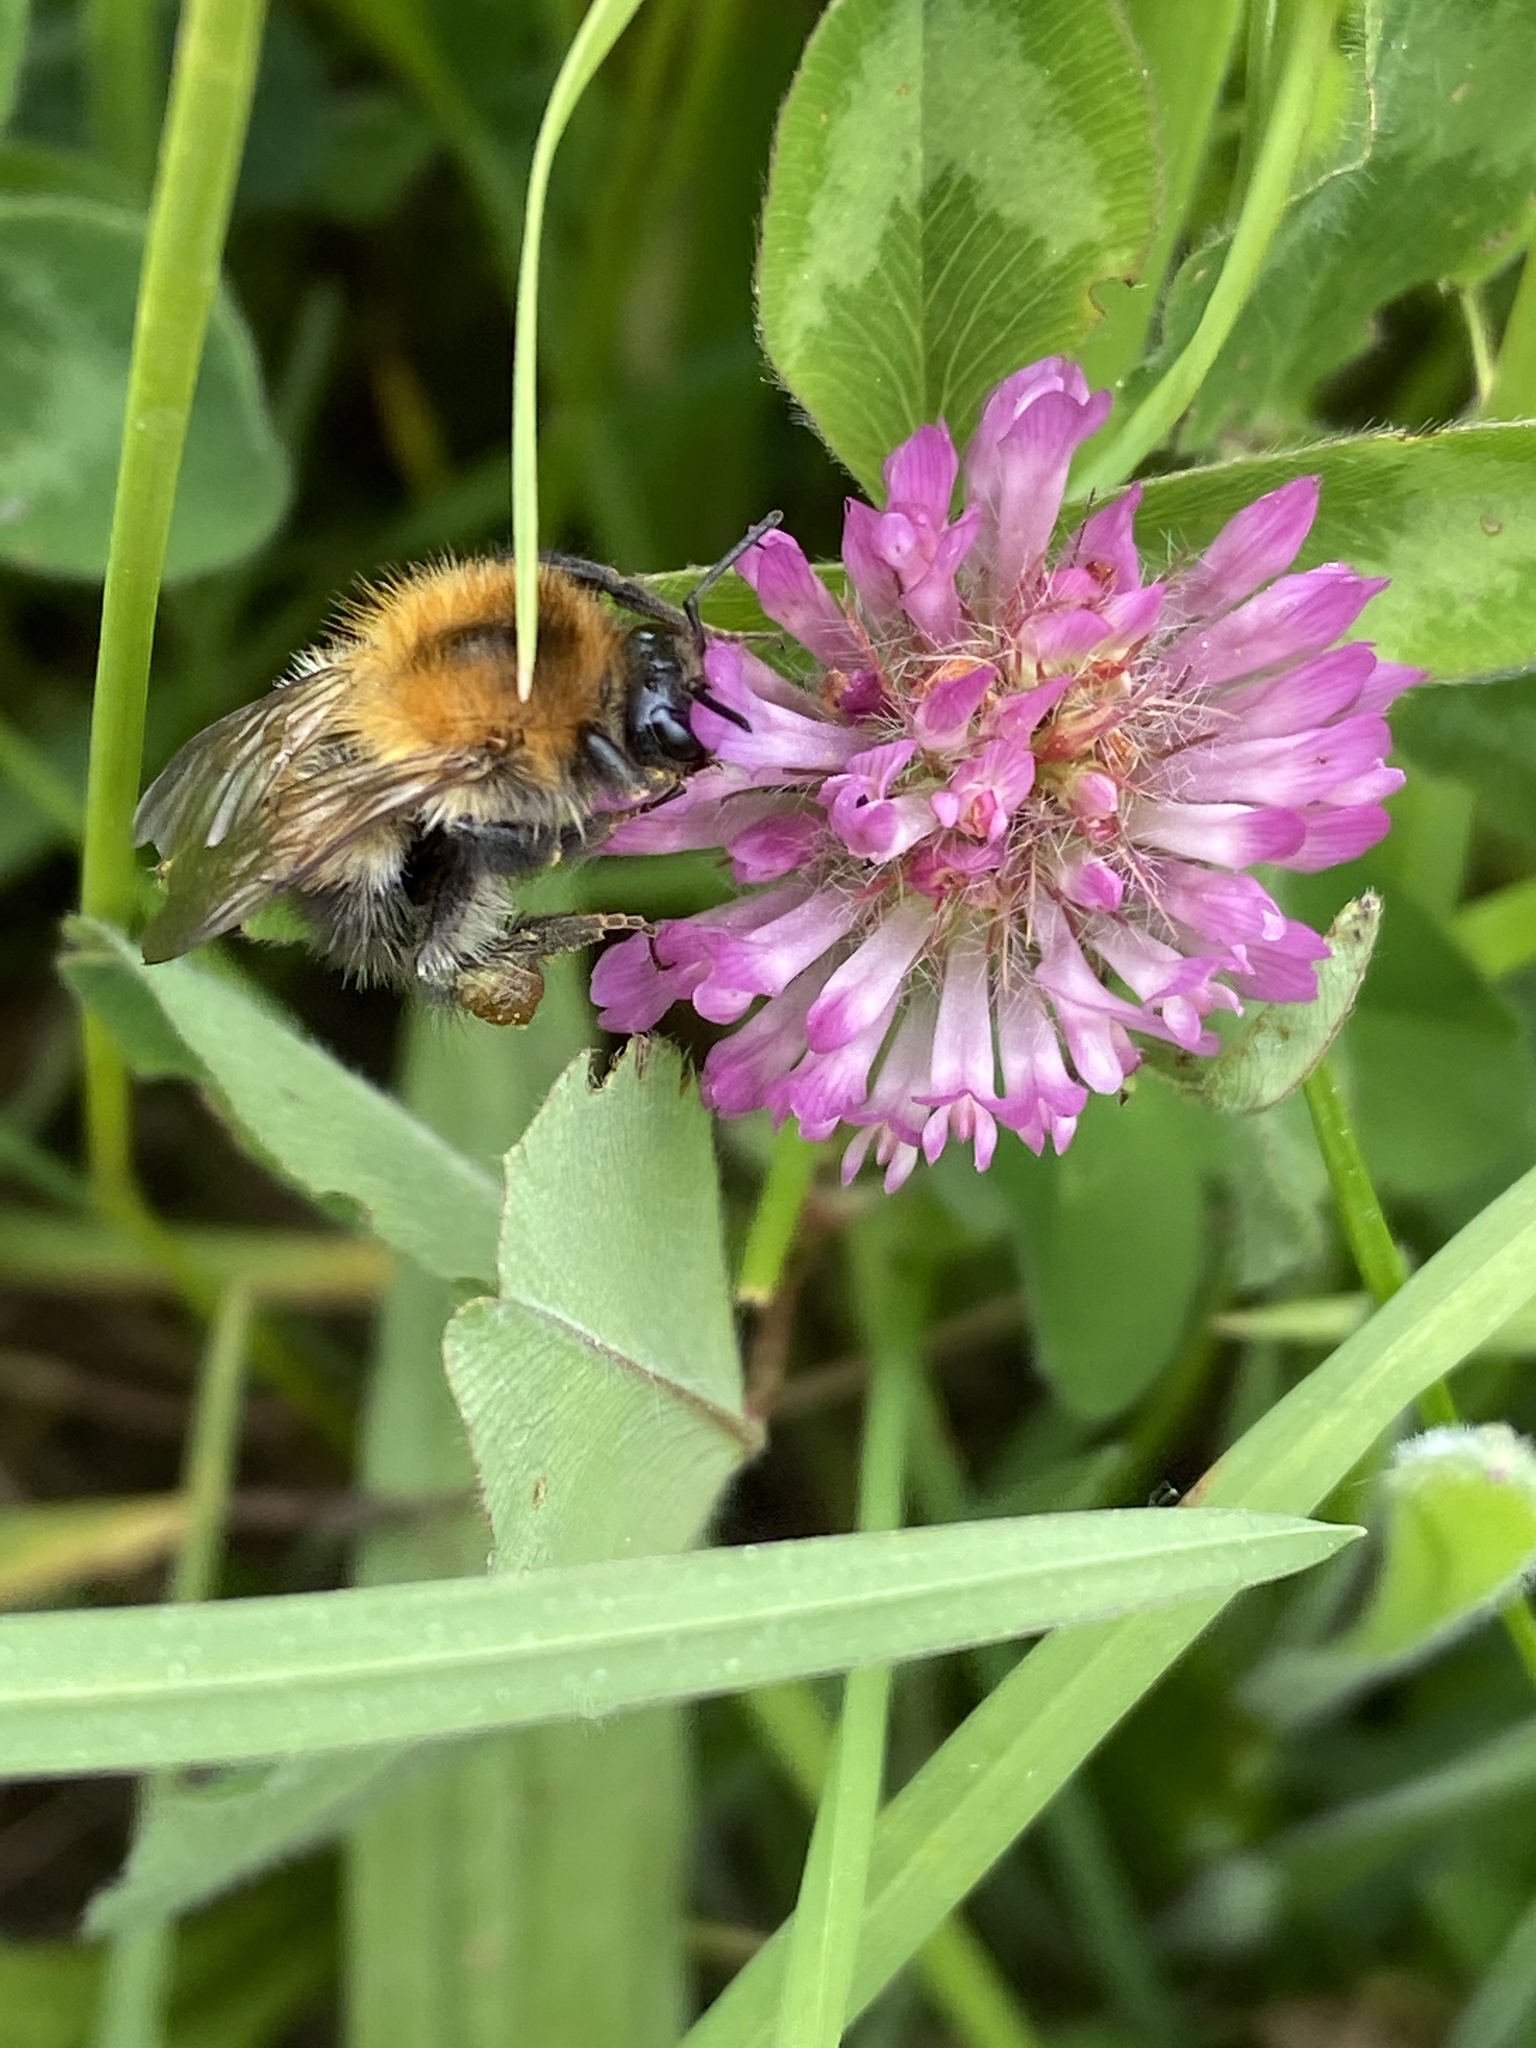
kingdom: Animalia
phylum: Arthropoda
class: Insecta
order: Hymenoptera
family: Apidae
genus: Bombus
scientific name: Bombus pascuorum
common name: Common carder bee
